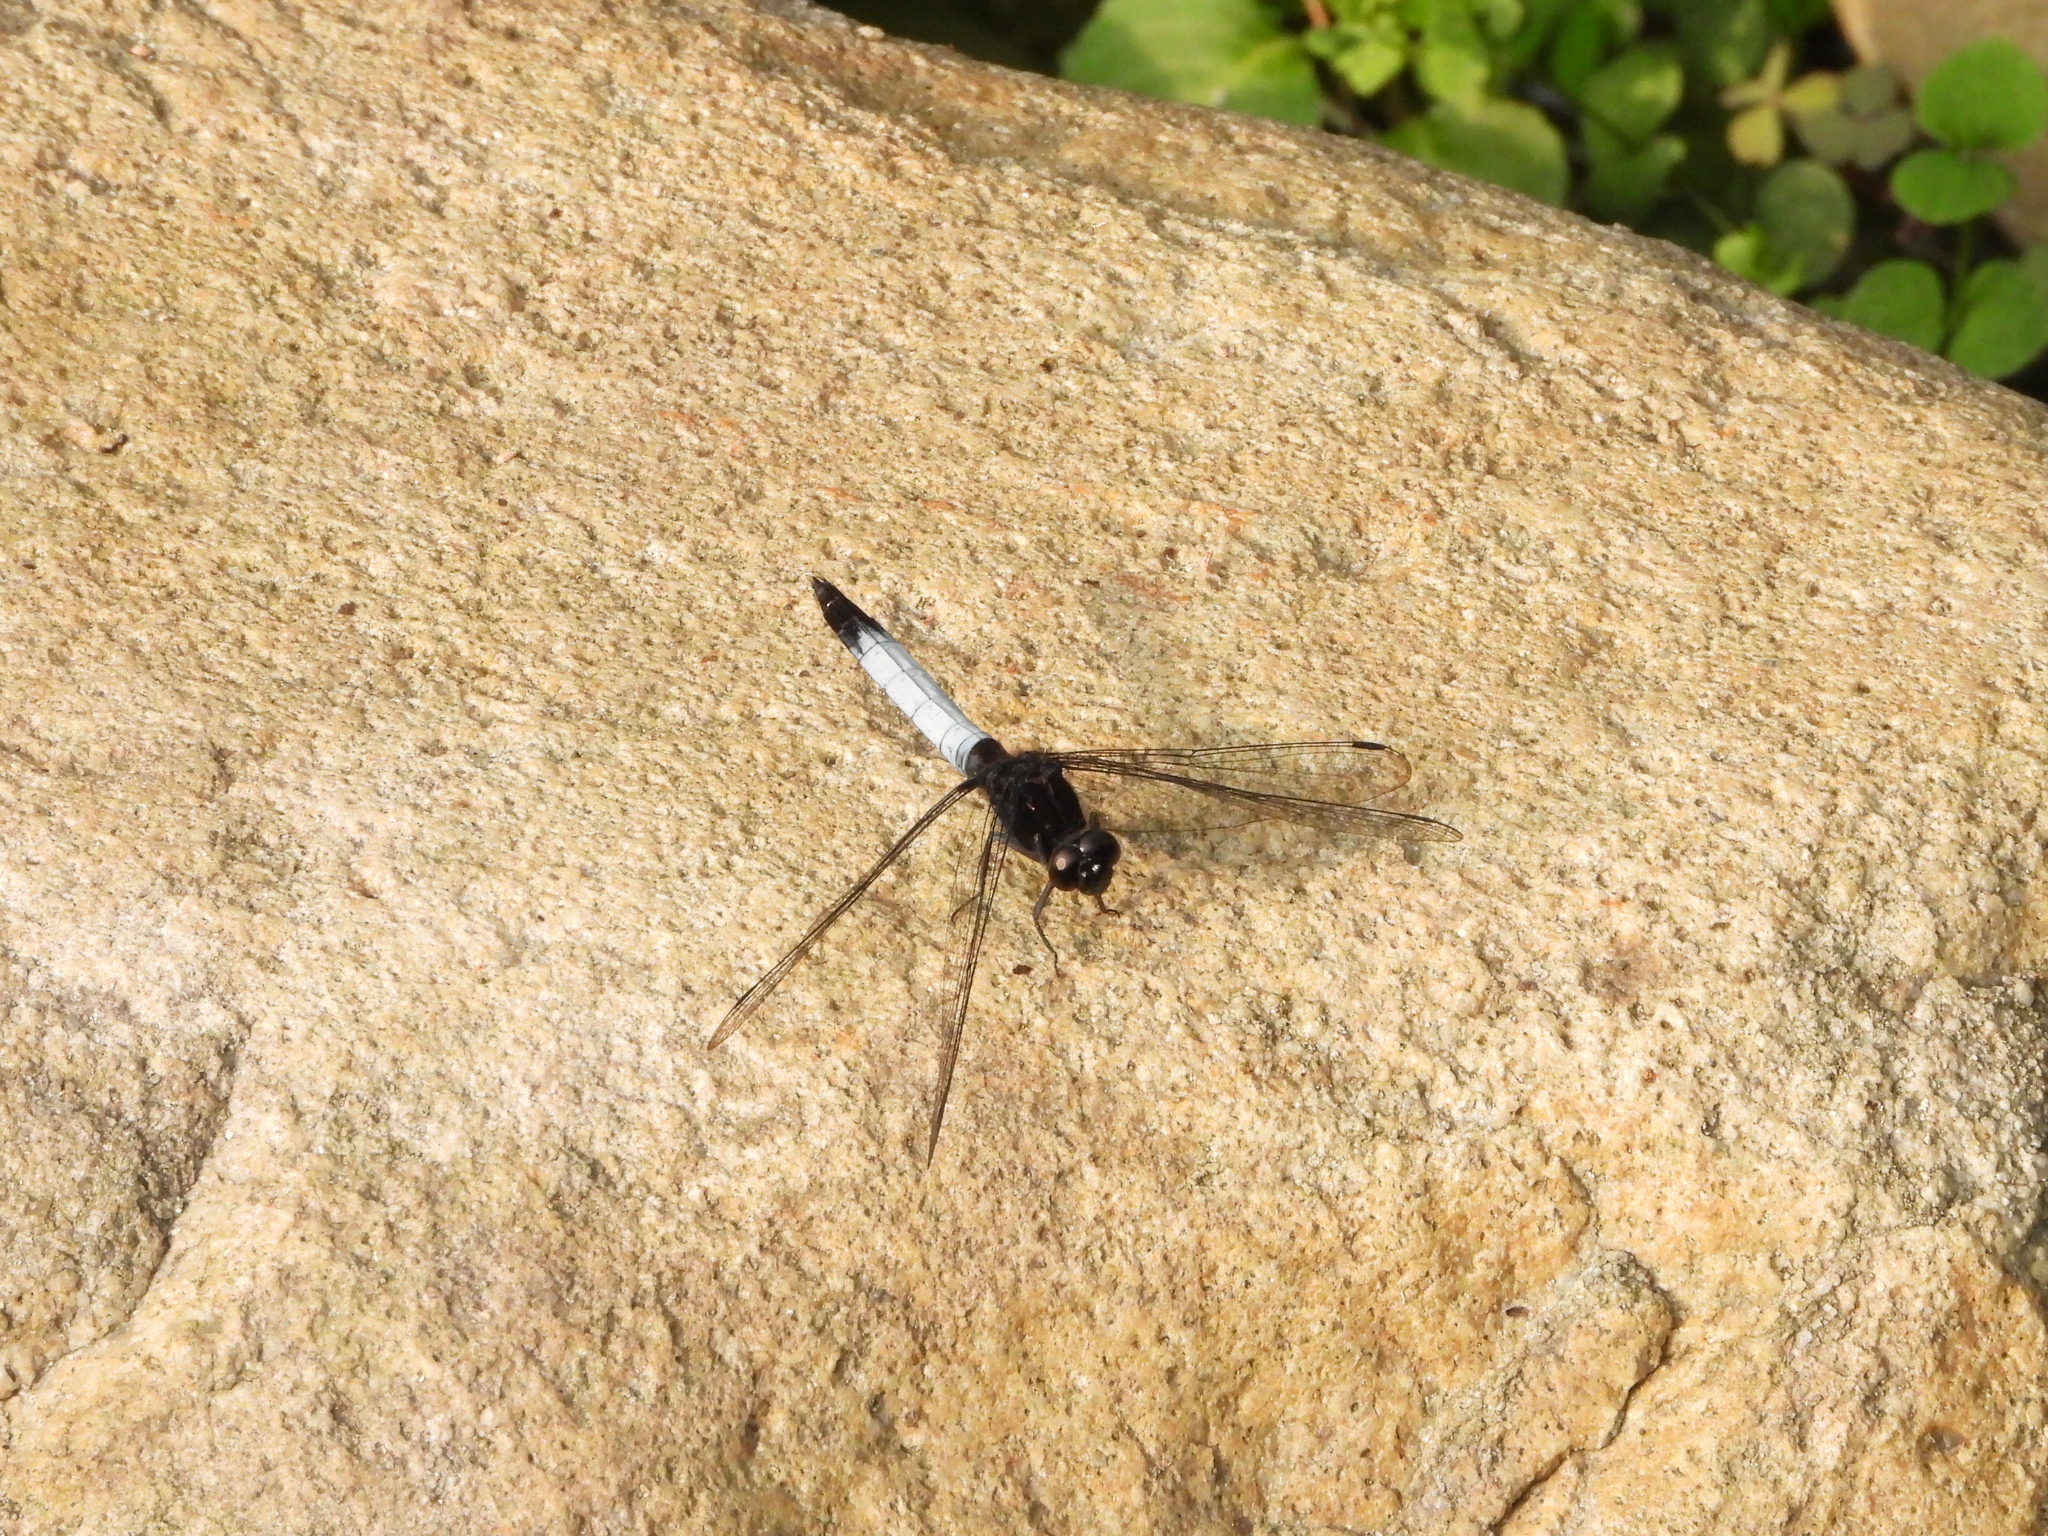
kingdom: Animalia
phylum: Arthropoda
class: Insecta
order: Odonata
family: Libellulidae
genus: Orthetrum
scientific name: Orthetrum triangulare
